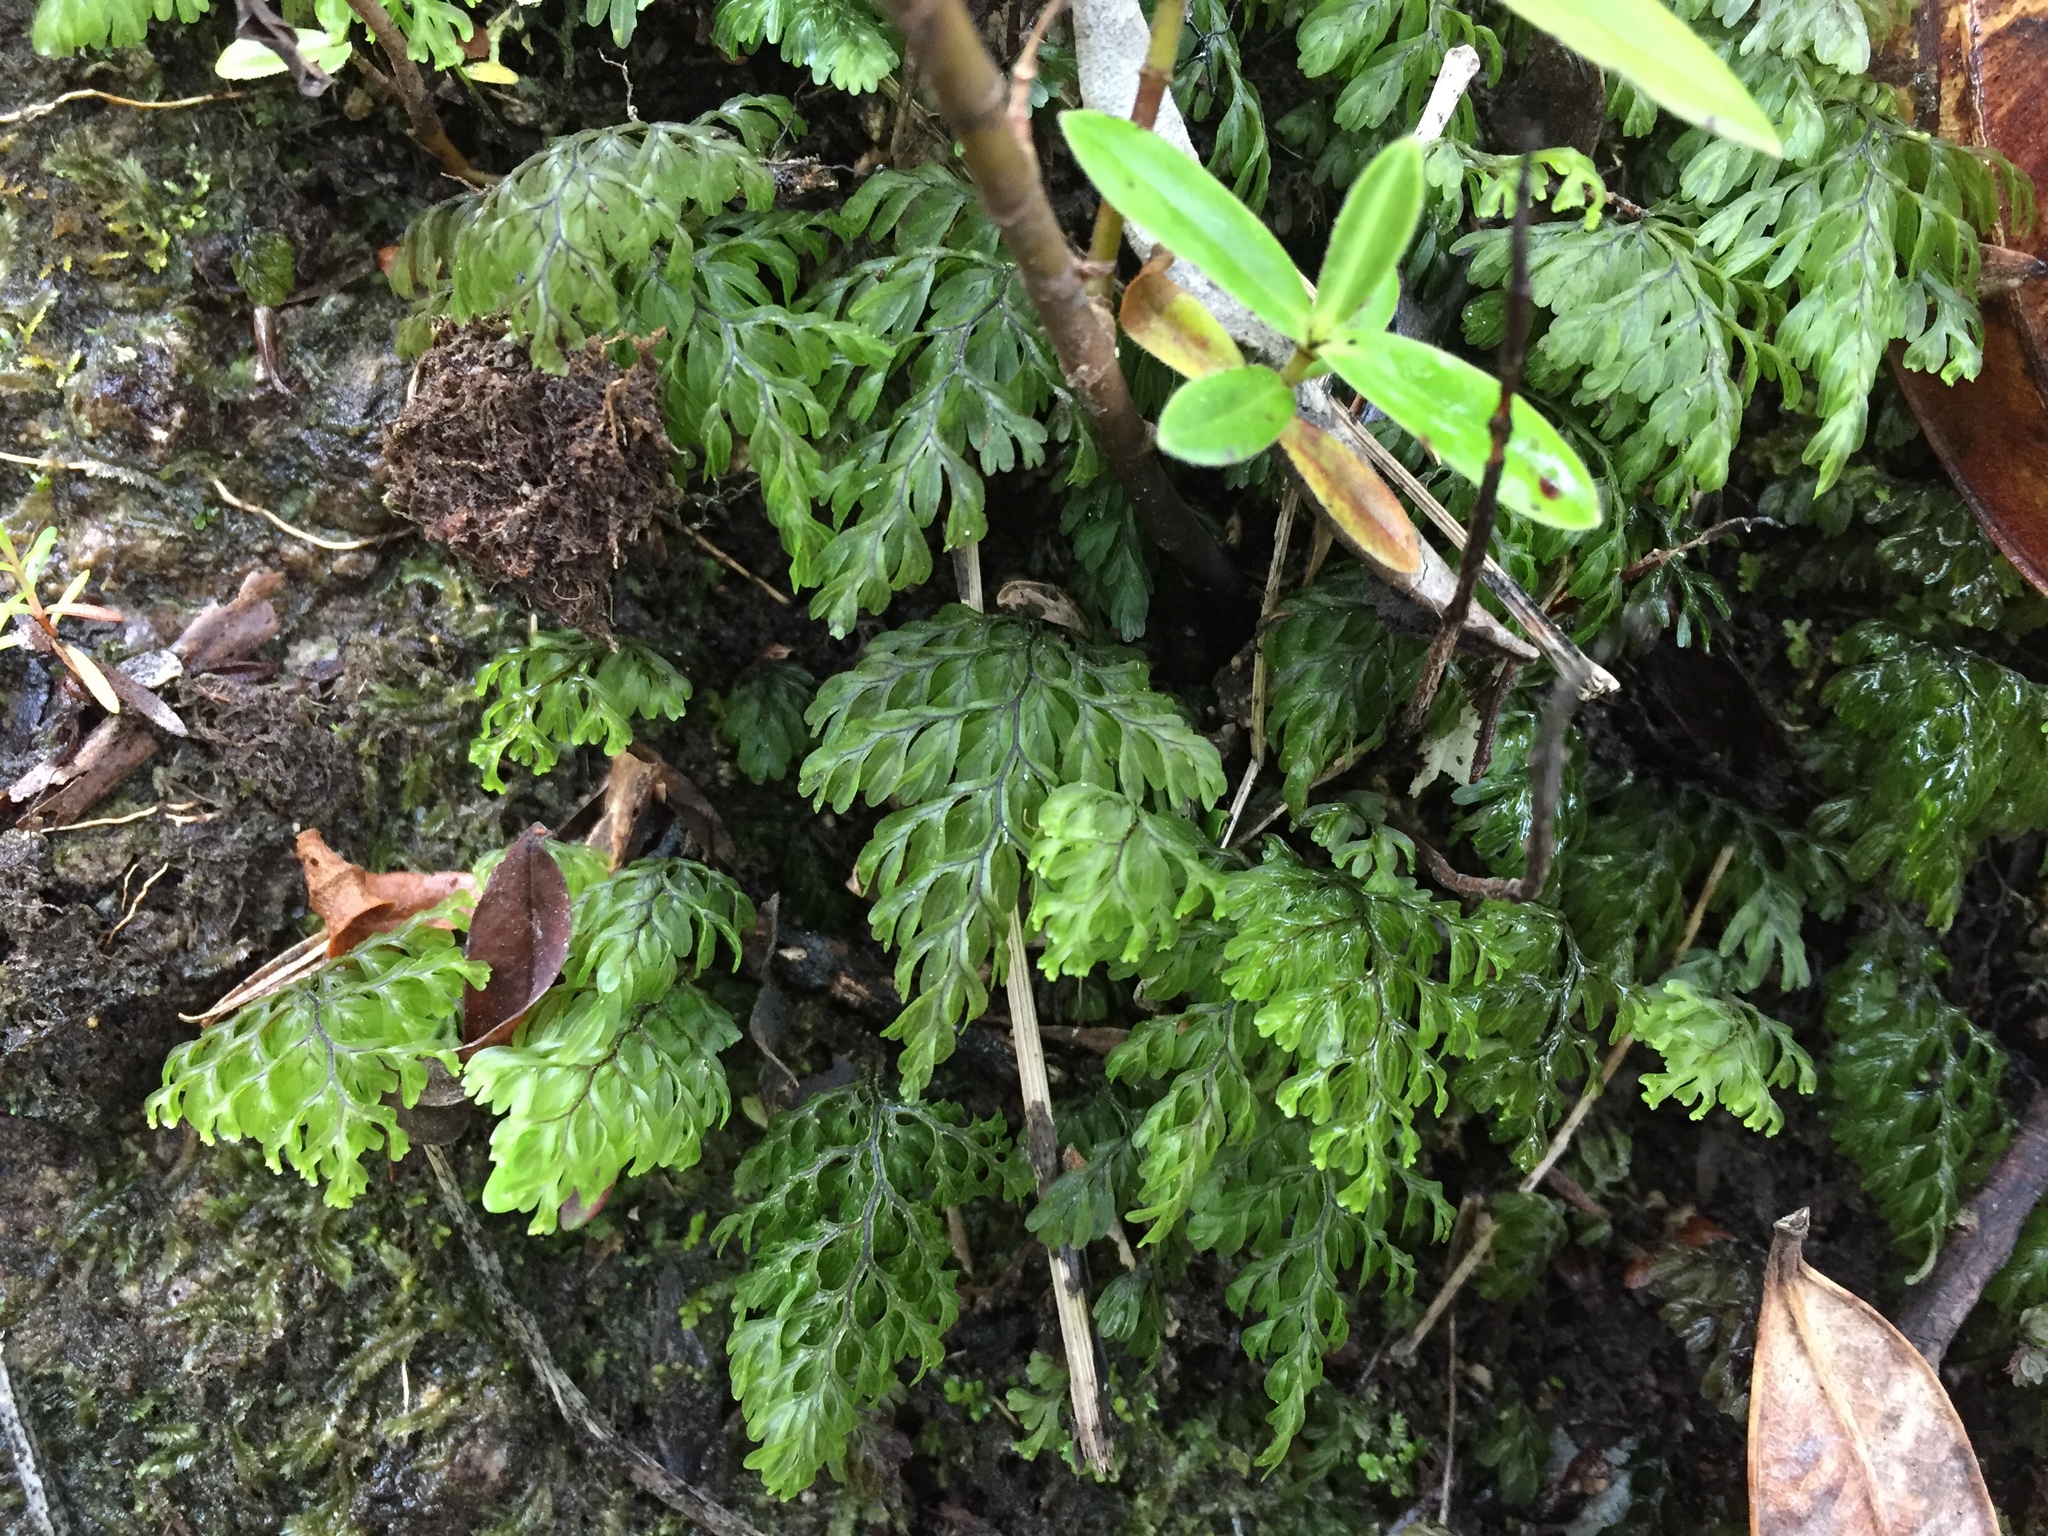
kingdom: Plantae
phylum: Tracheophyta
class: Polypodiopsida
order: Hymenophyllales
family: Hymenophyllaceae
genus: Hymenophyllum
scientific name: Hymenophyllum sanguinolentum
